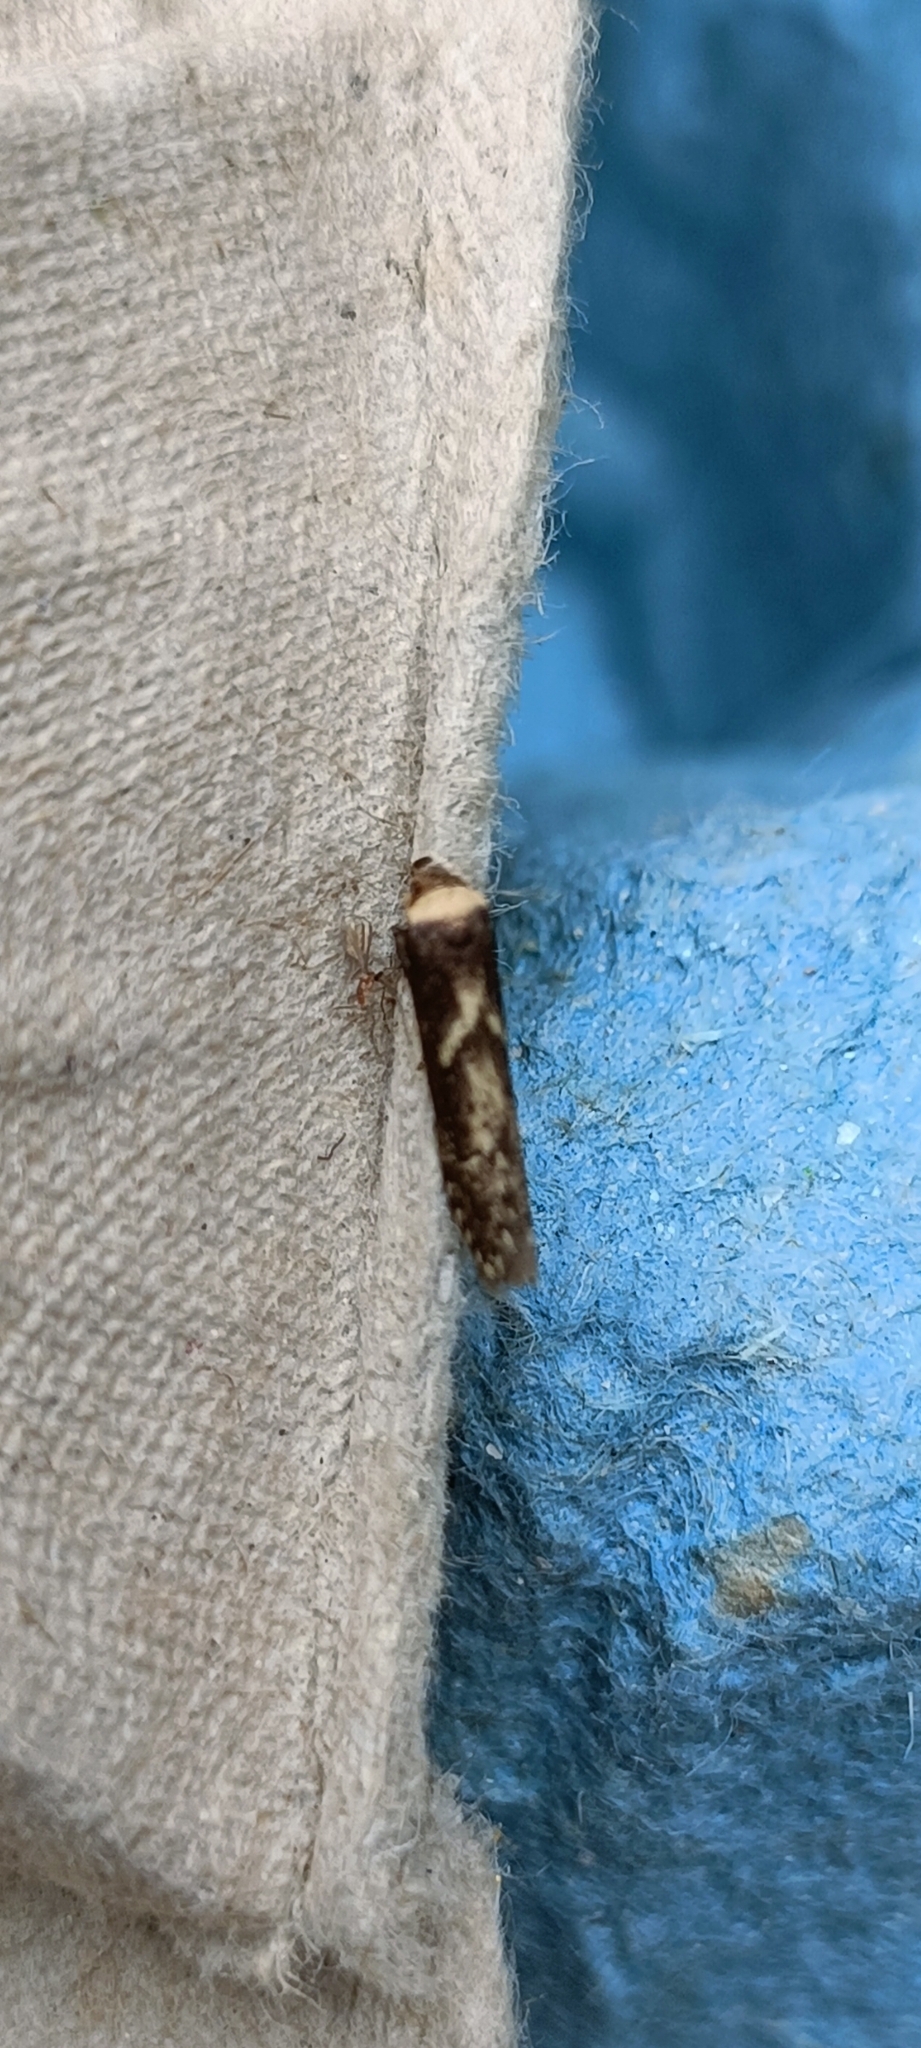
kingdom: Animalia
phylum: Arthropoda
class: Insecta
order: Lepidoptera
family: Blastobasidae
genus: Blastobasis
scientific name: Blastobasis adustella
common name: Dingy dowd
